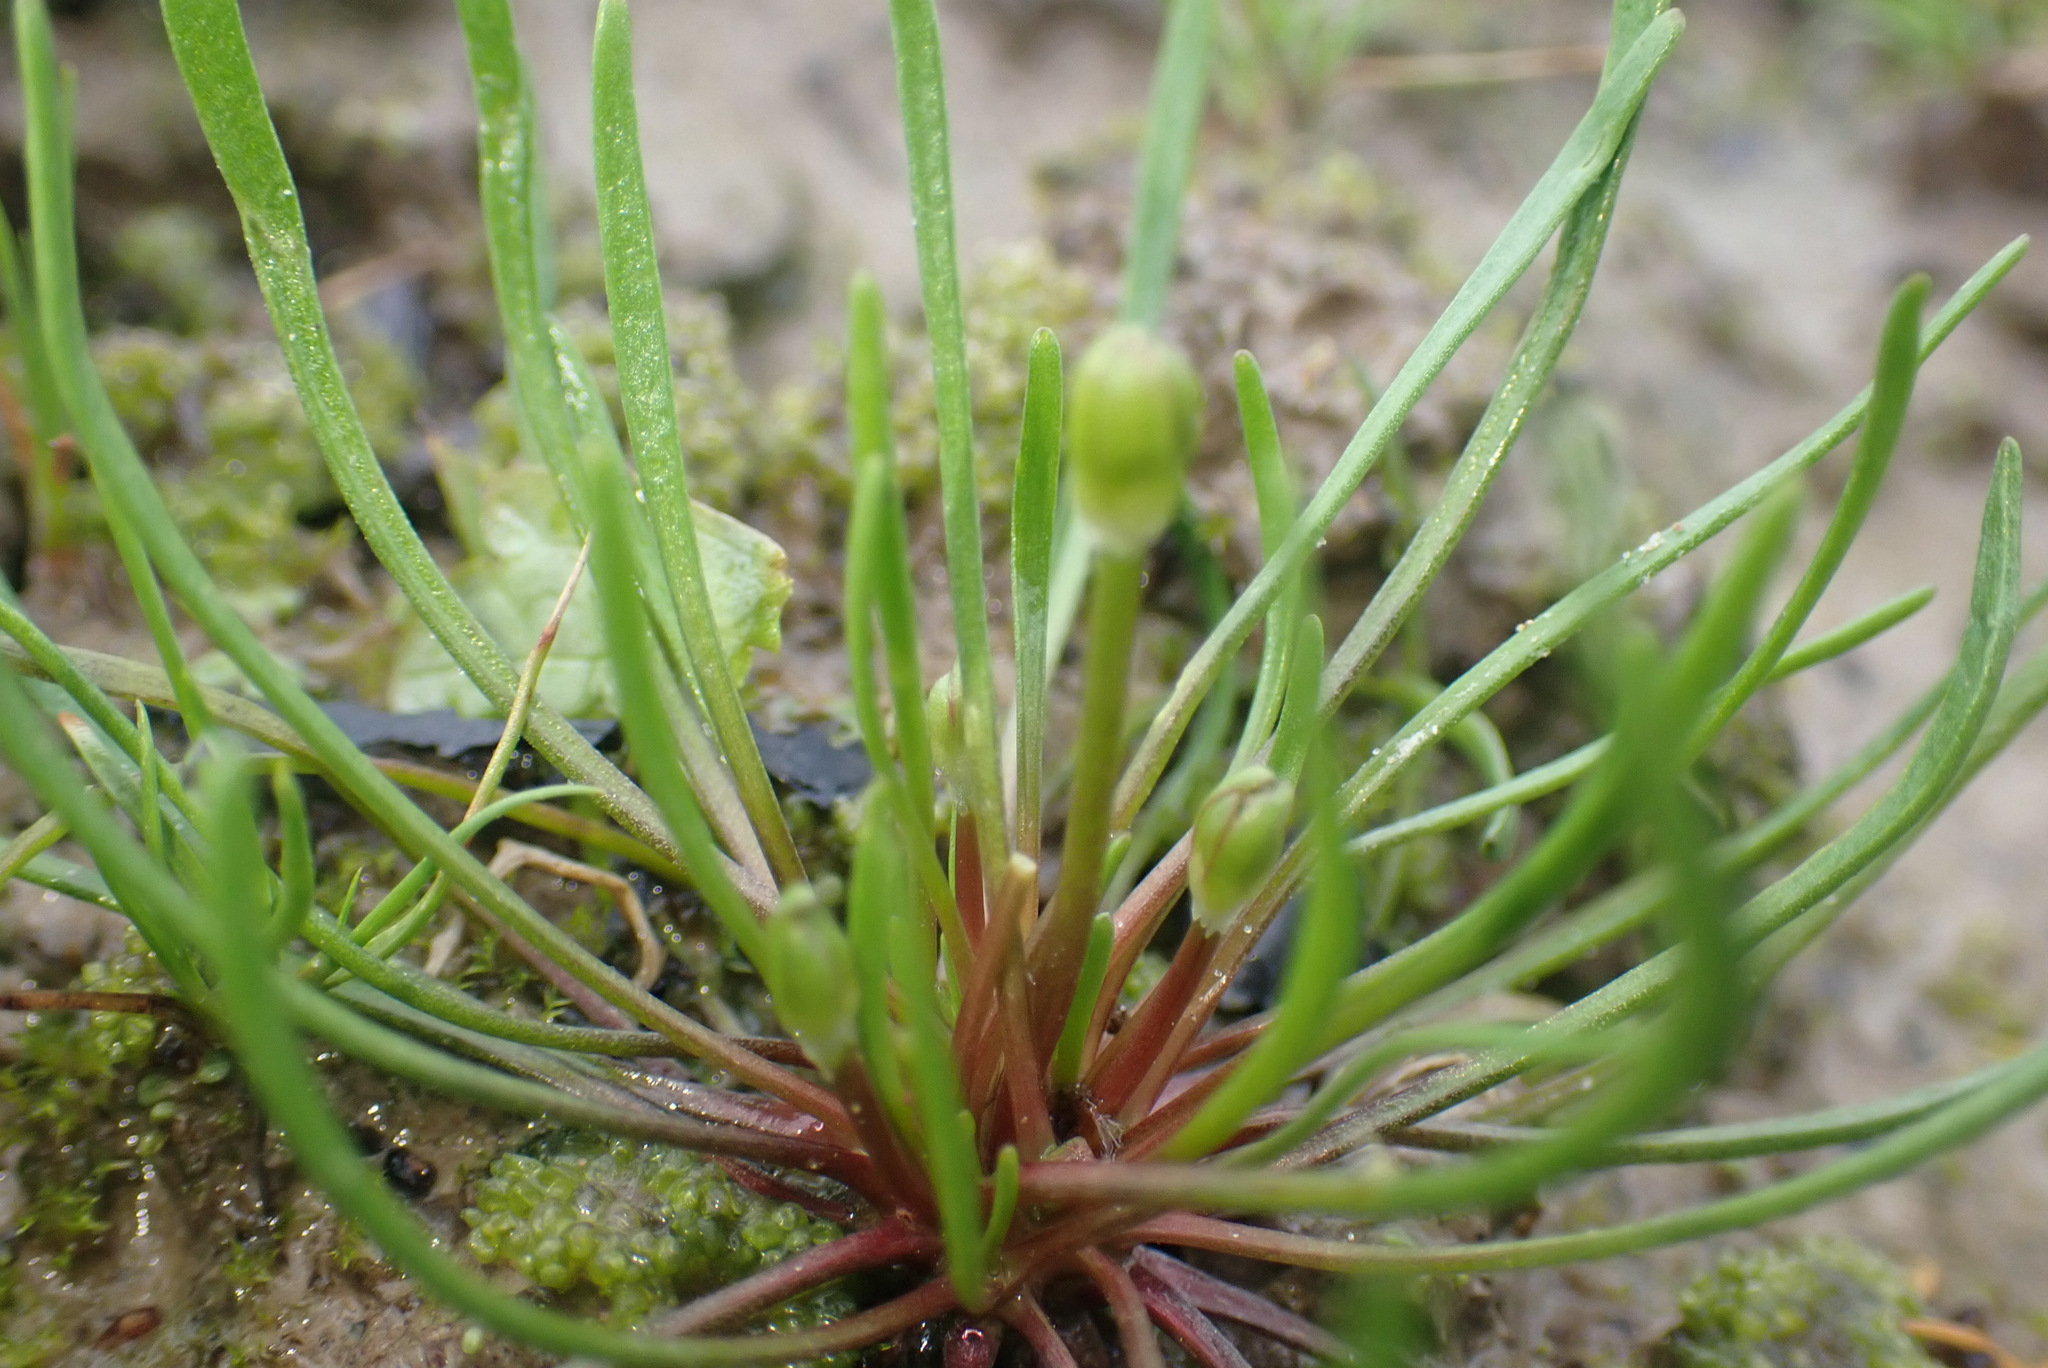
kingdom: Plantae
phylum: Tracheophyta
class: Magnoliopsida
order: Ranunculales
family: Ranunculaceae
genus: Myosurus
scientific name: Myosurus minimus
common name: Mousetail
